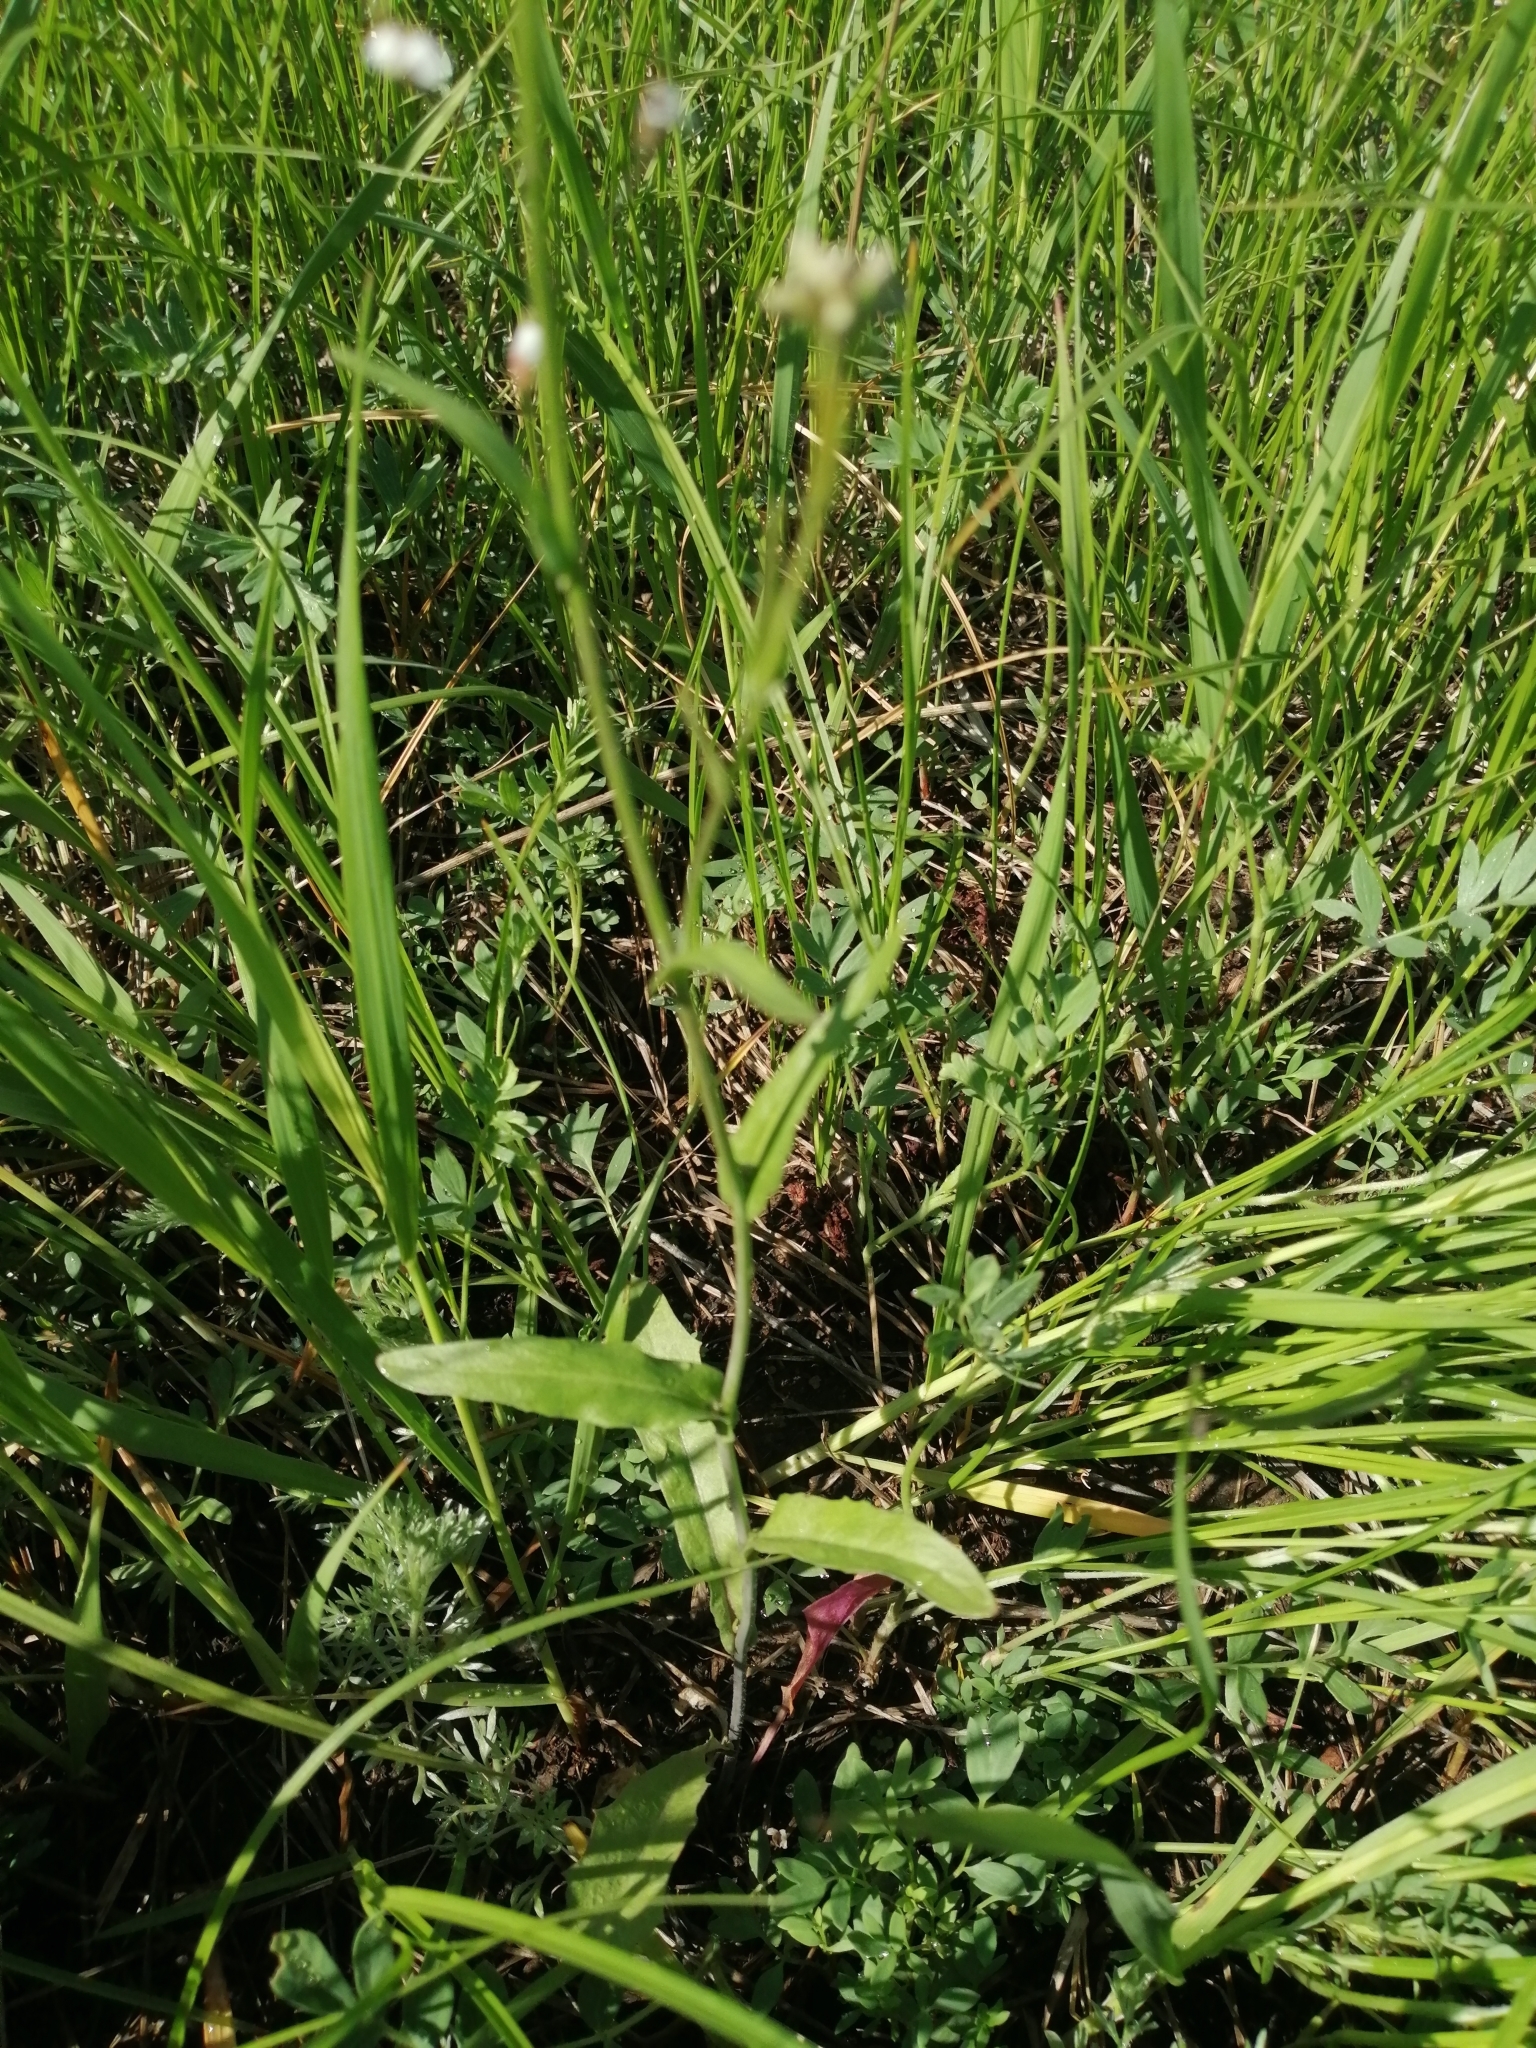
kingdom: Plantae
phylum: Tracheophyta
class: Magnoliopsida
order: Brassicales
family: Brassicaceae
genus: Pseudoarabidopsis
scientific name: Pseudoarabidopsis toxophylla
